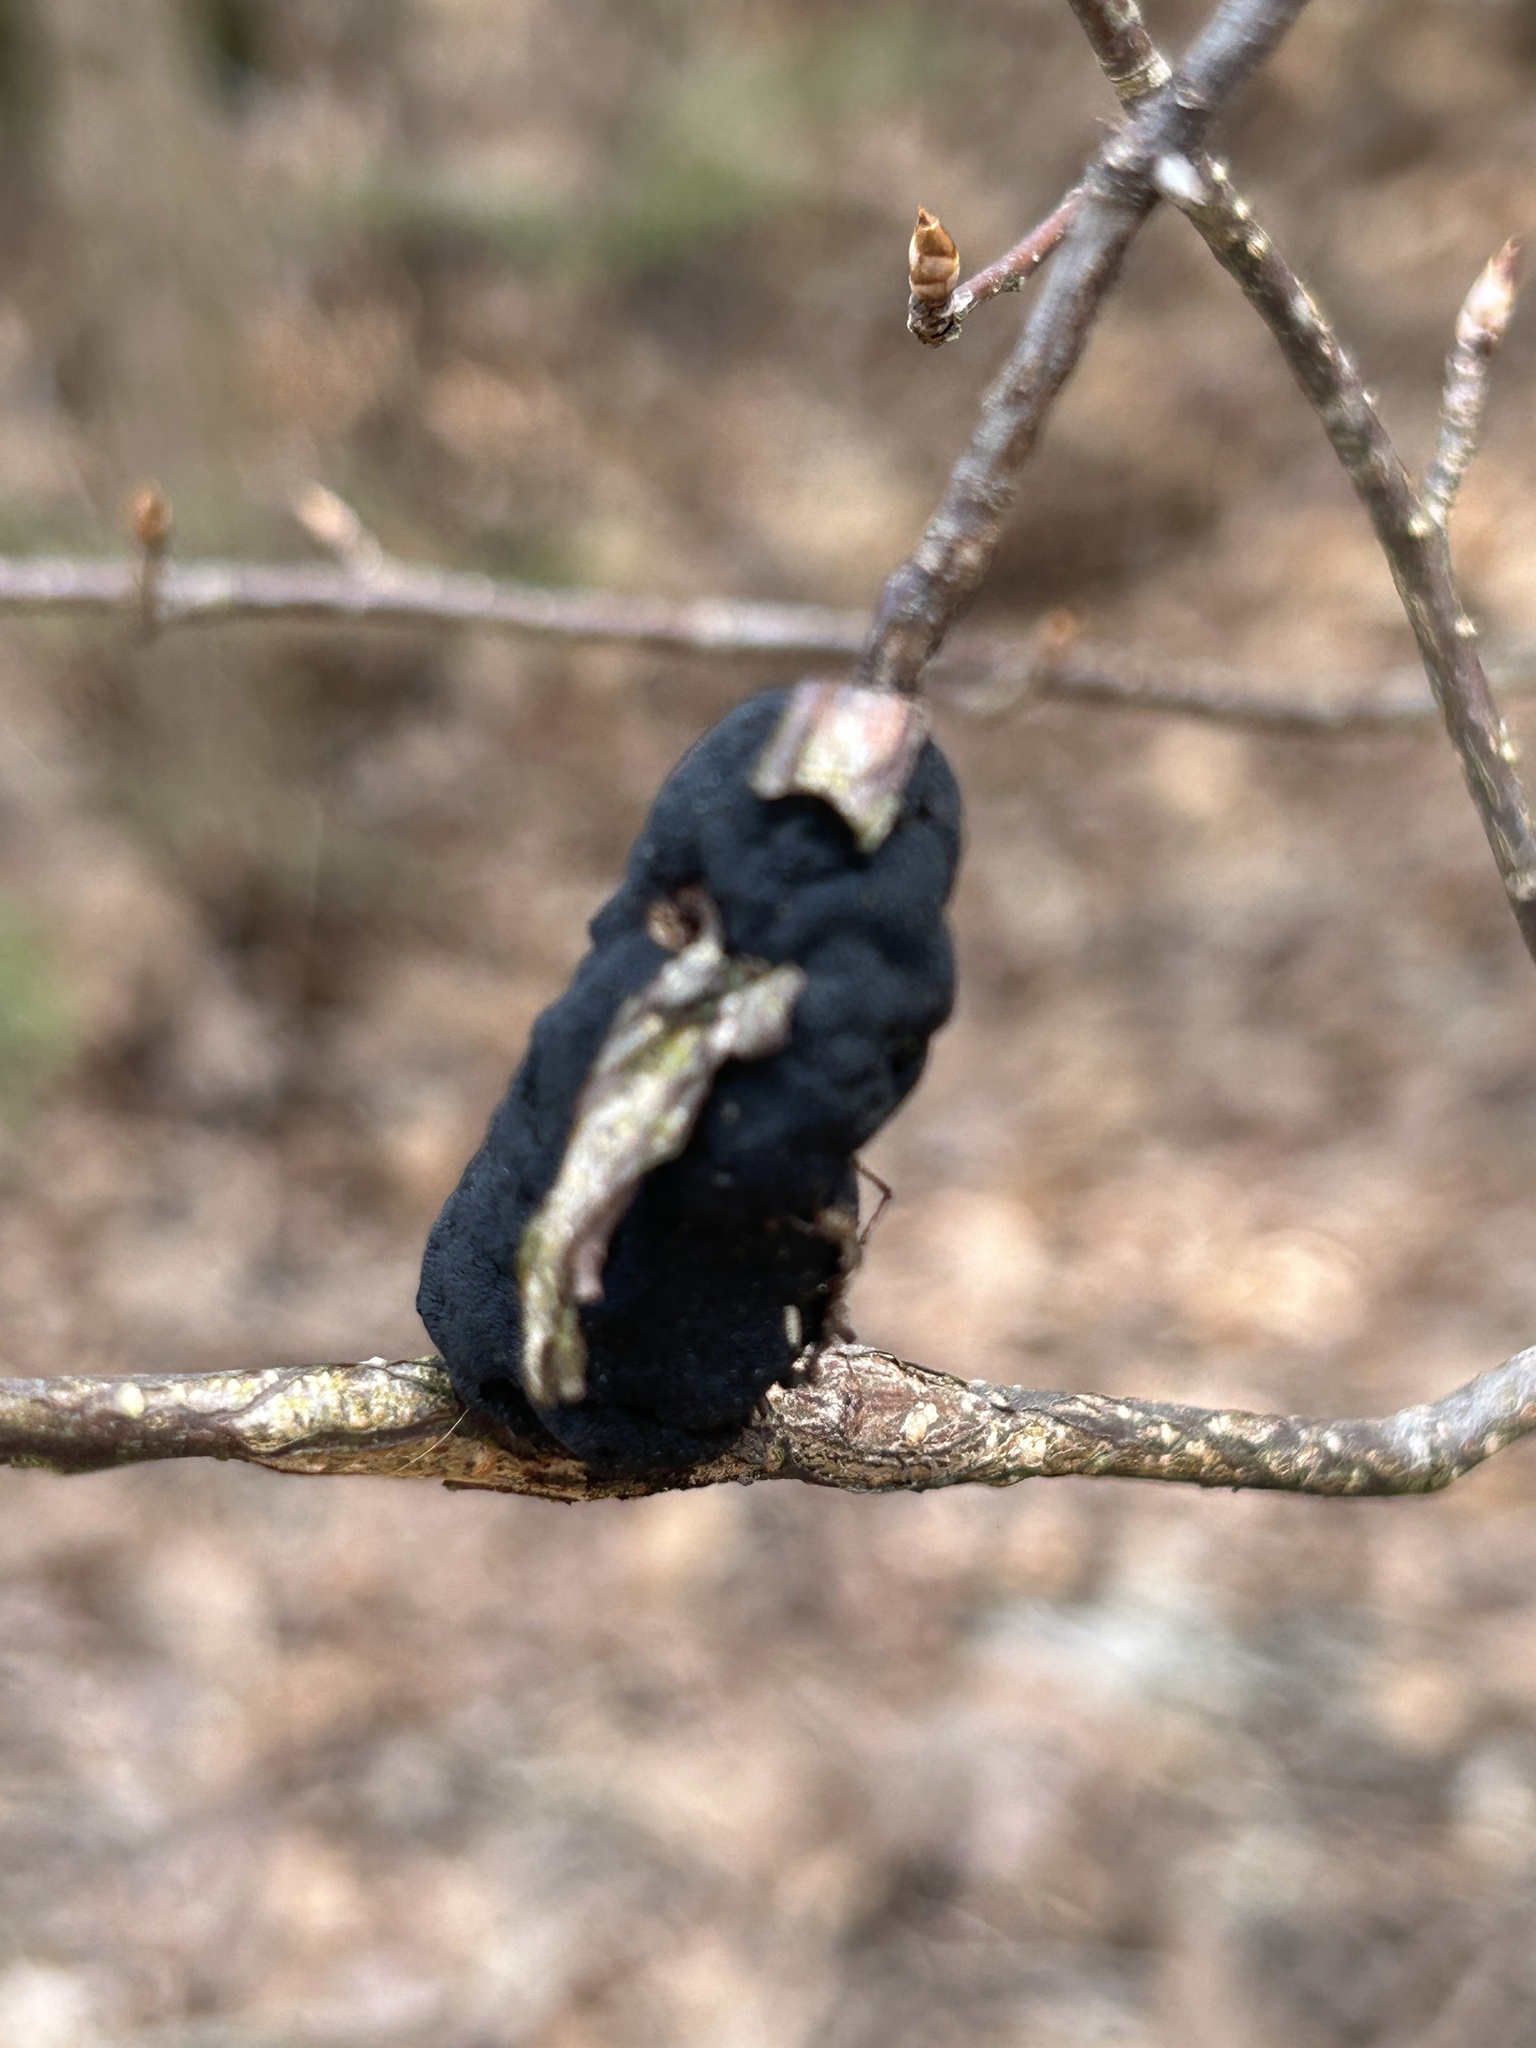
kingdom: Fungi
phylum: Ascomycota
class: Dothideomycetes
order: Venturiales
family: Venturiaceae
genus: Apiosporina
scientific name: Apiosporina morbosa
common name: Black knot
